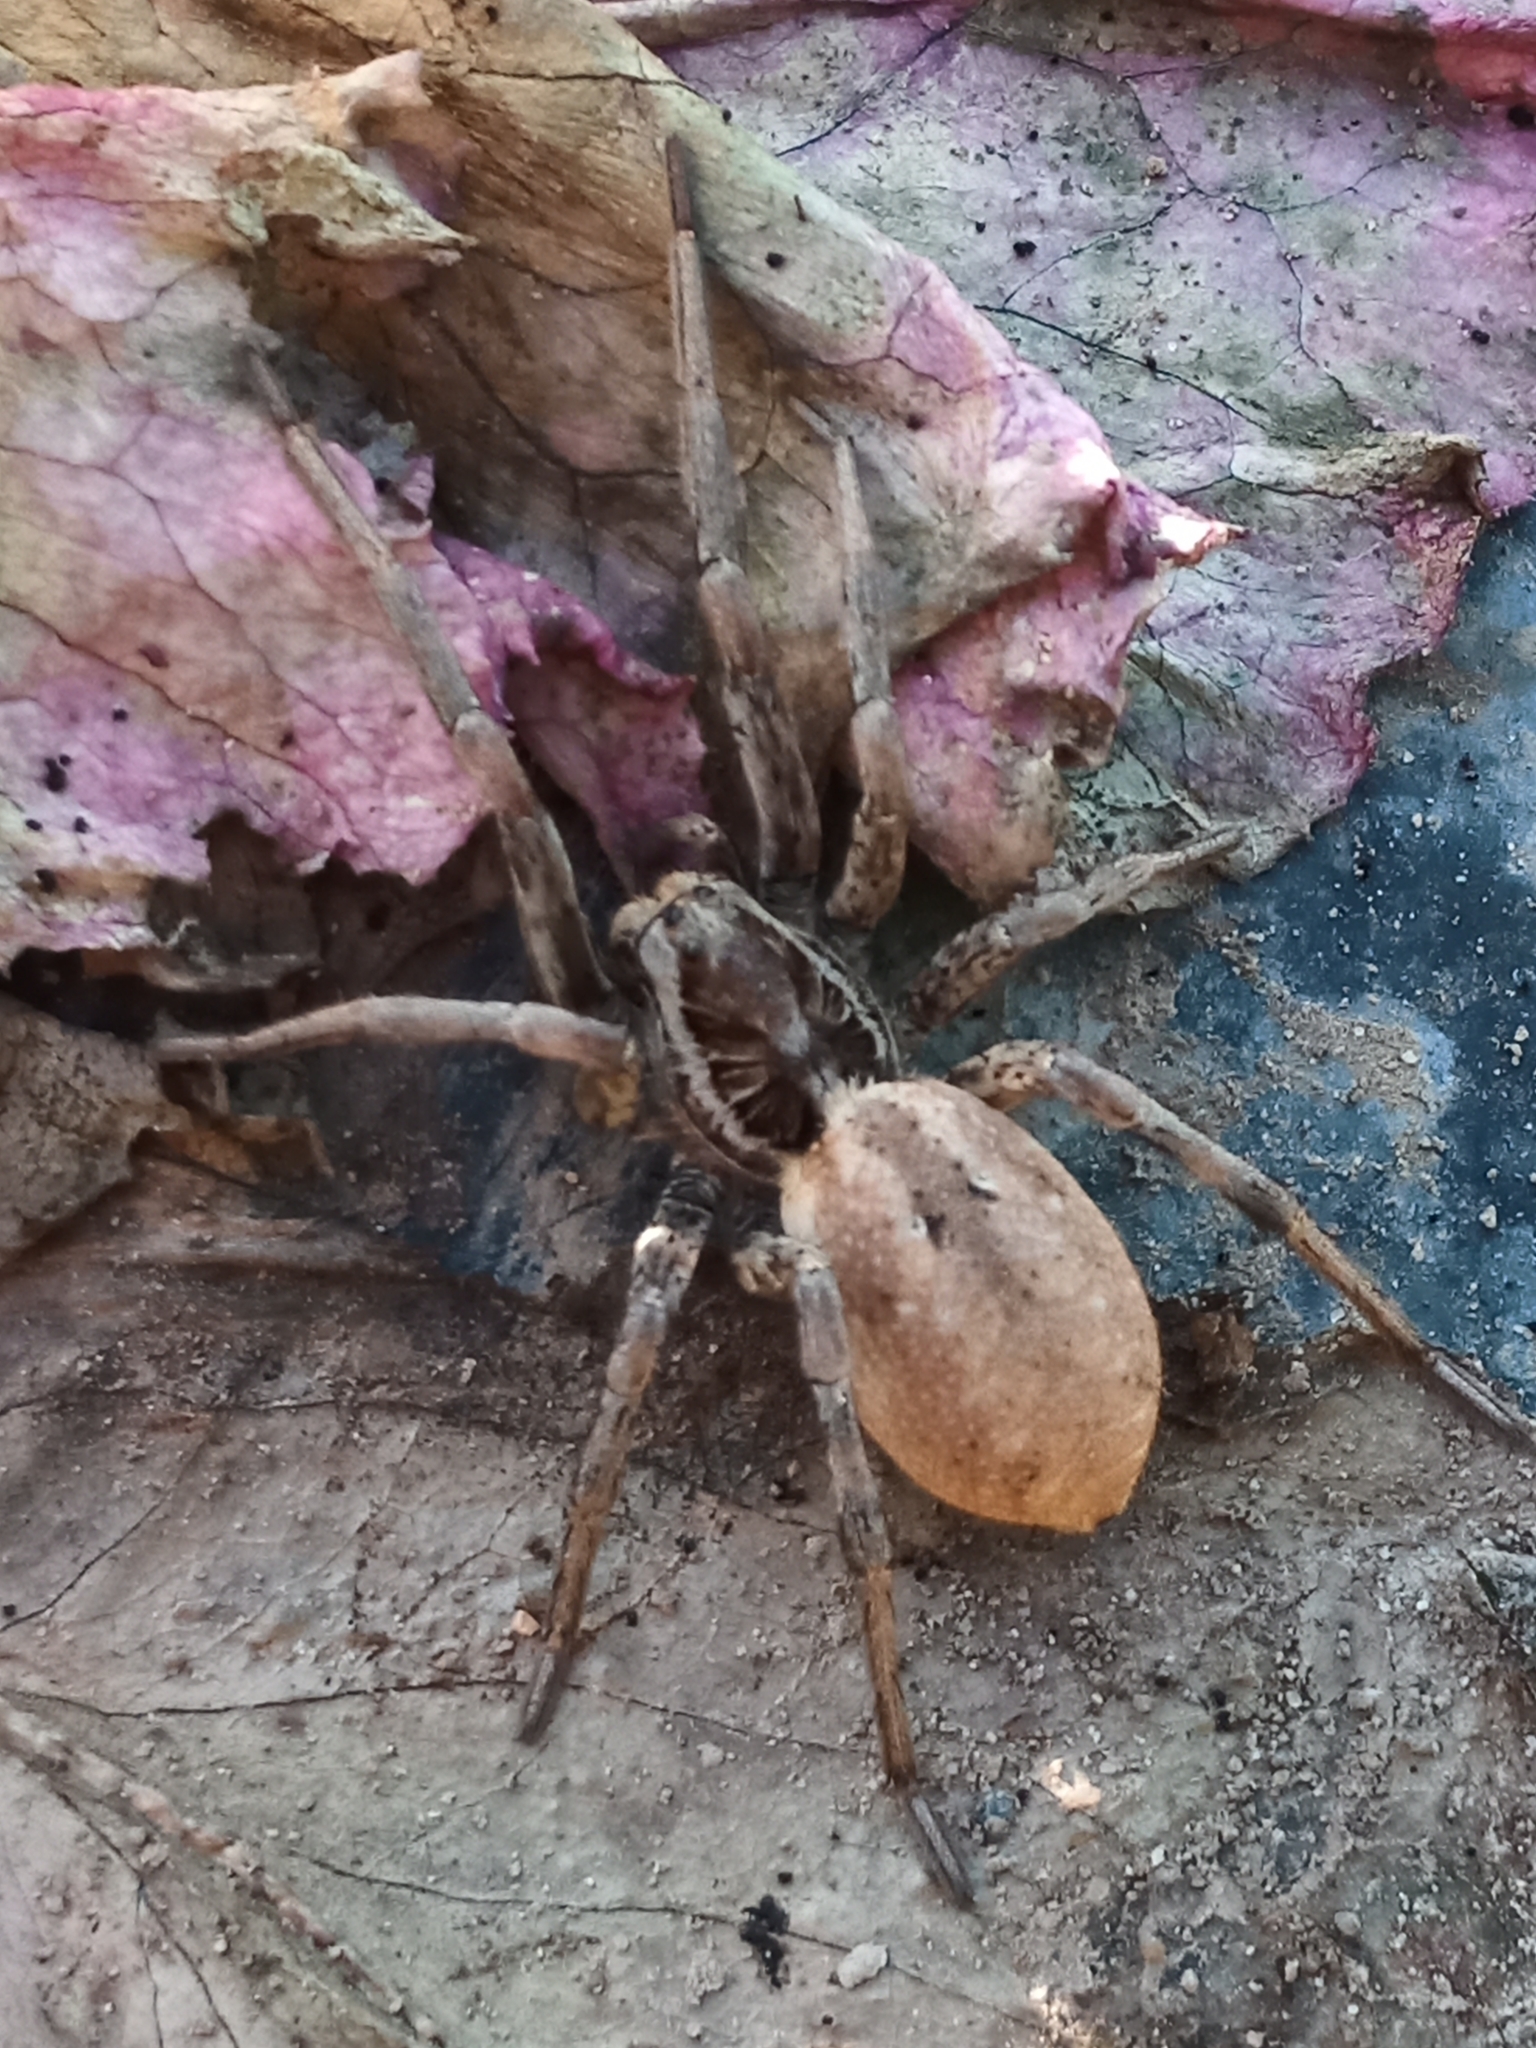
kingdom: Animalia
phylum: Arthropoda
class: Arachnida
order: Araneae
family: Lycosidae
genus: Hogna
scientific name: Hogna radiata
